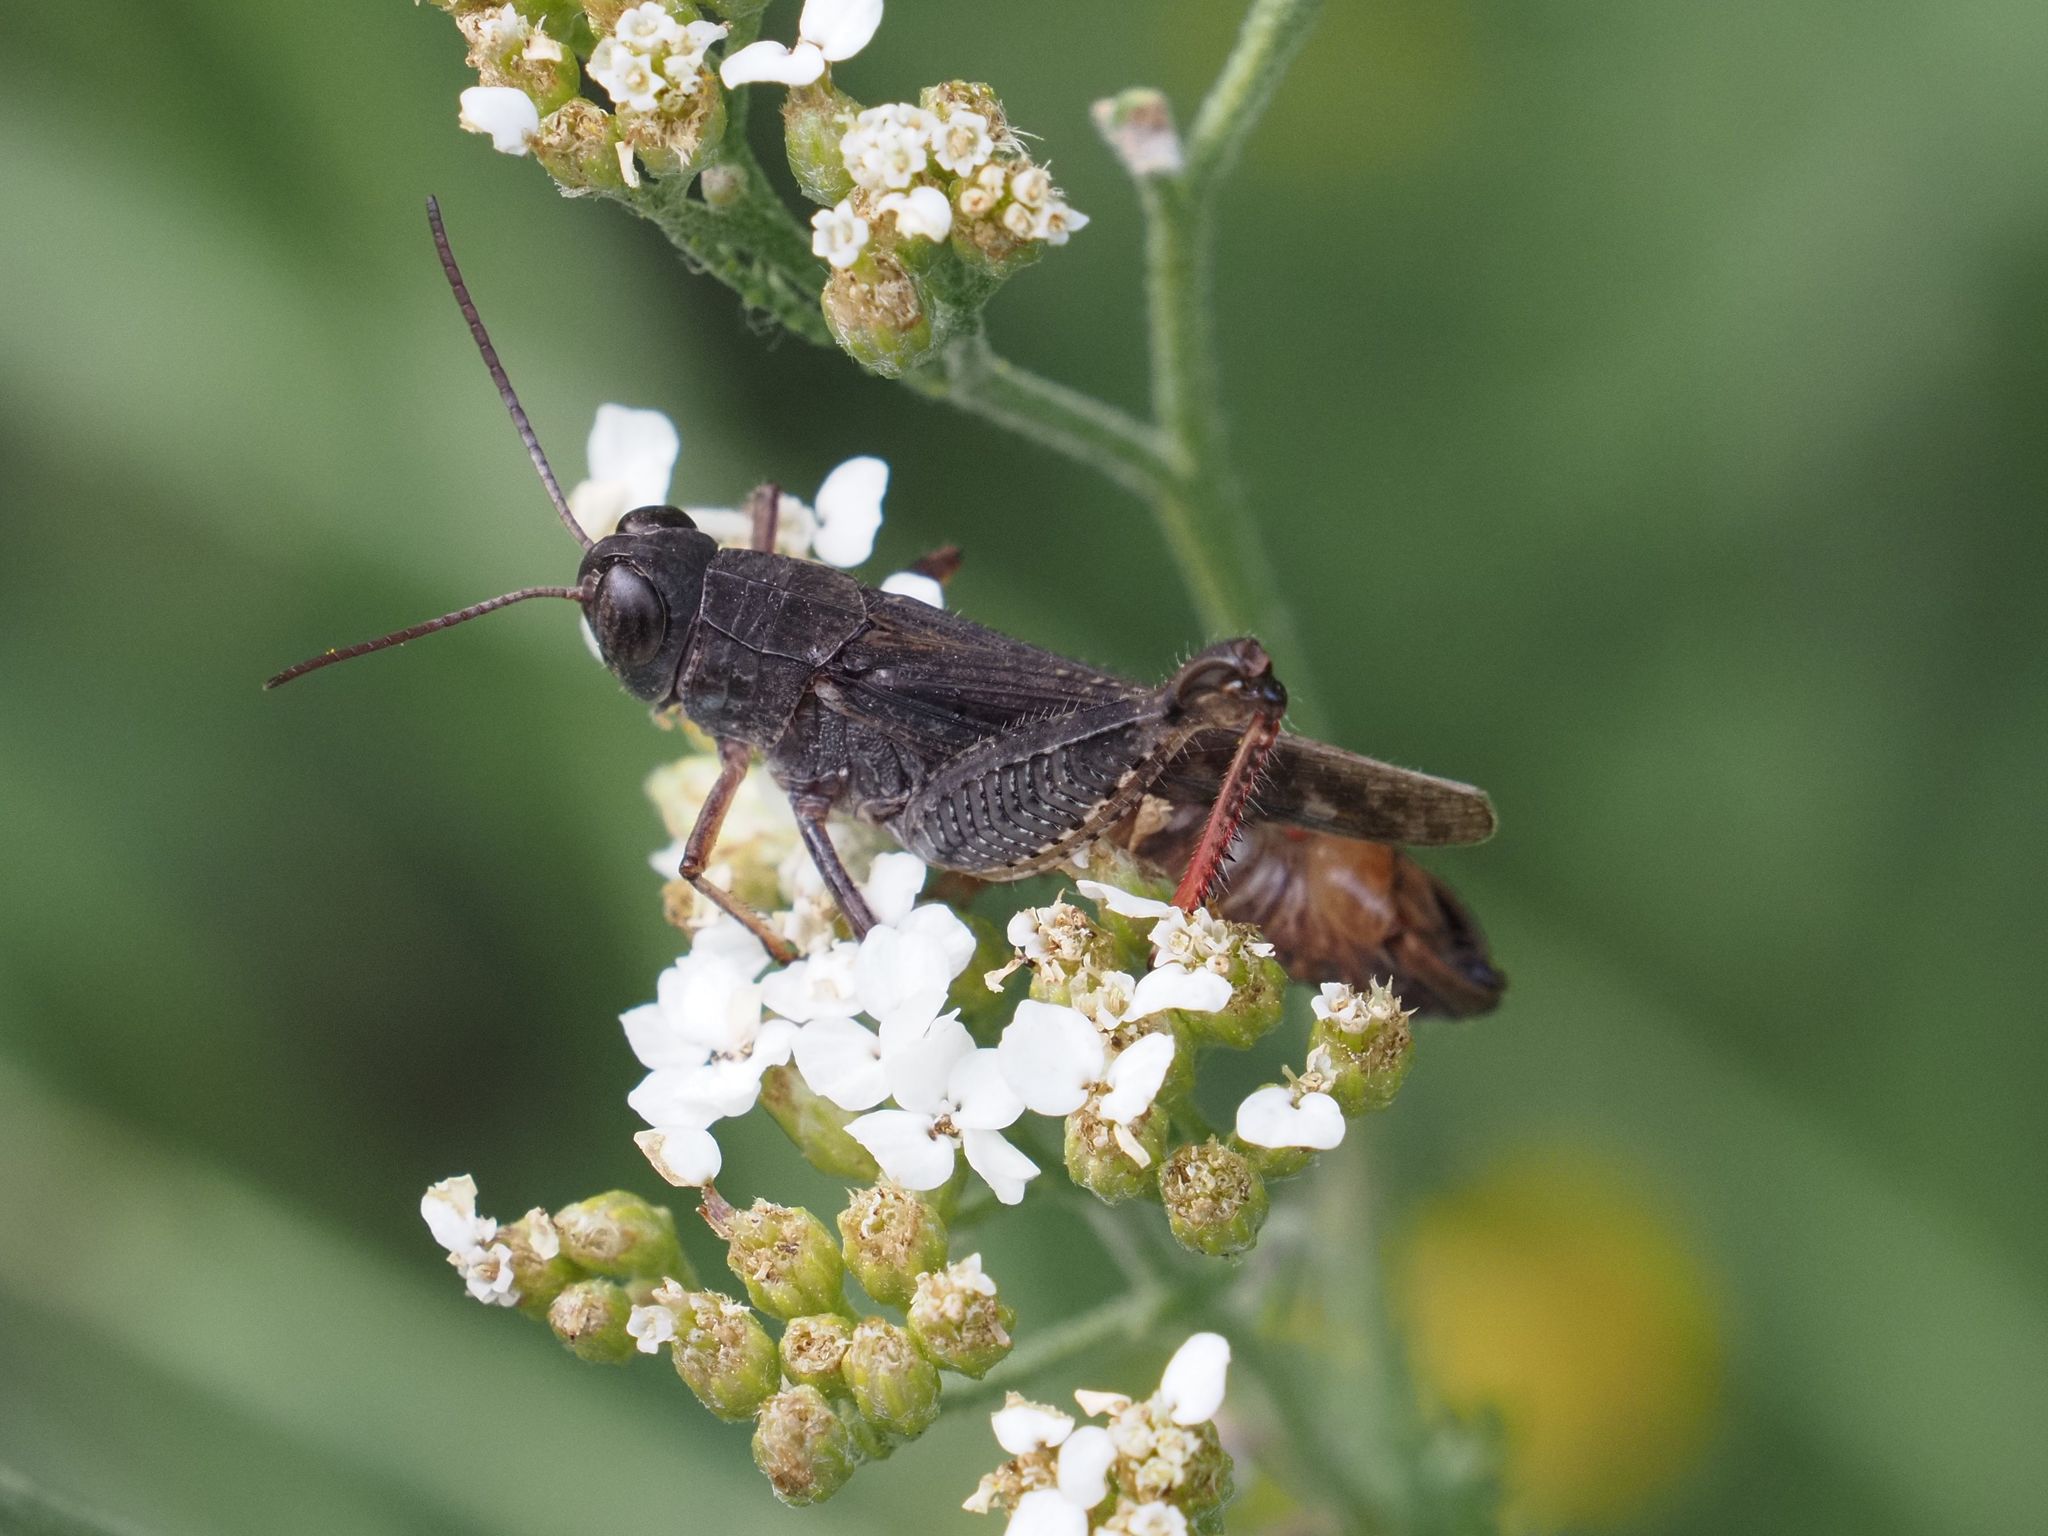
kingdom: Animalia
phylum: Arthropoda
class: Insecta
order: Orthoptera
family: Acrididae
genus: Calliptamus
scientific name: Calliptamus italicus
